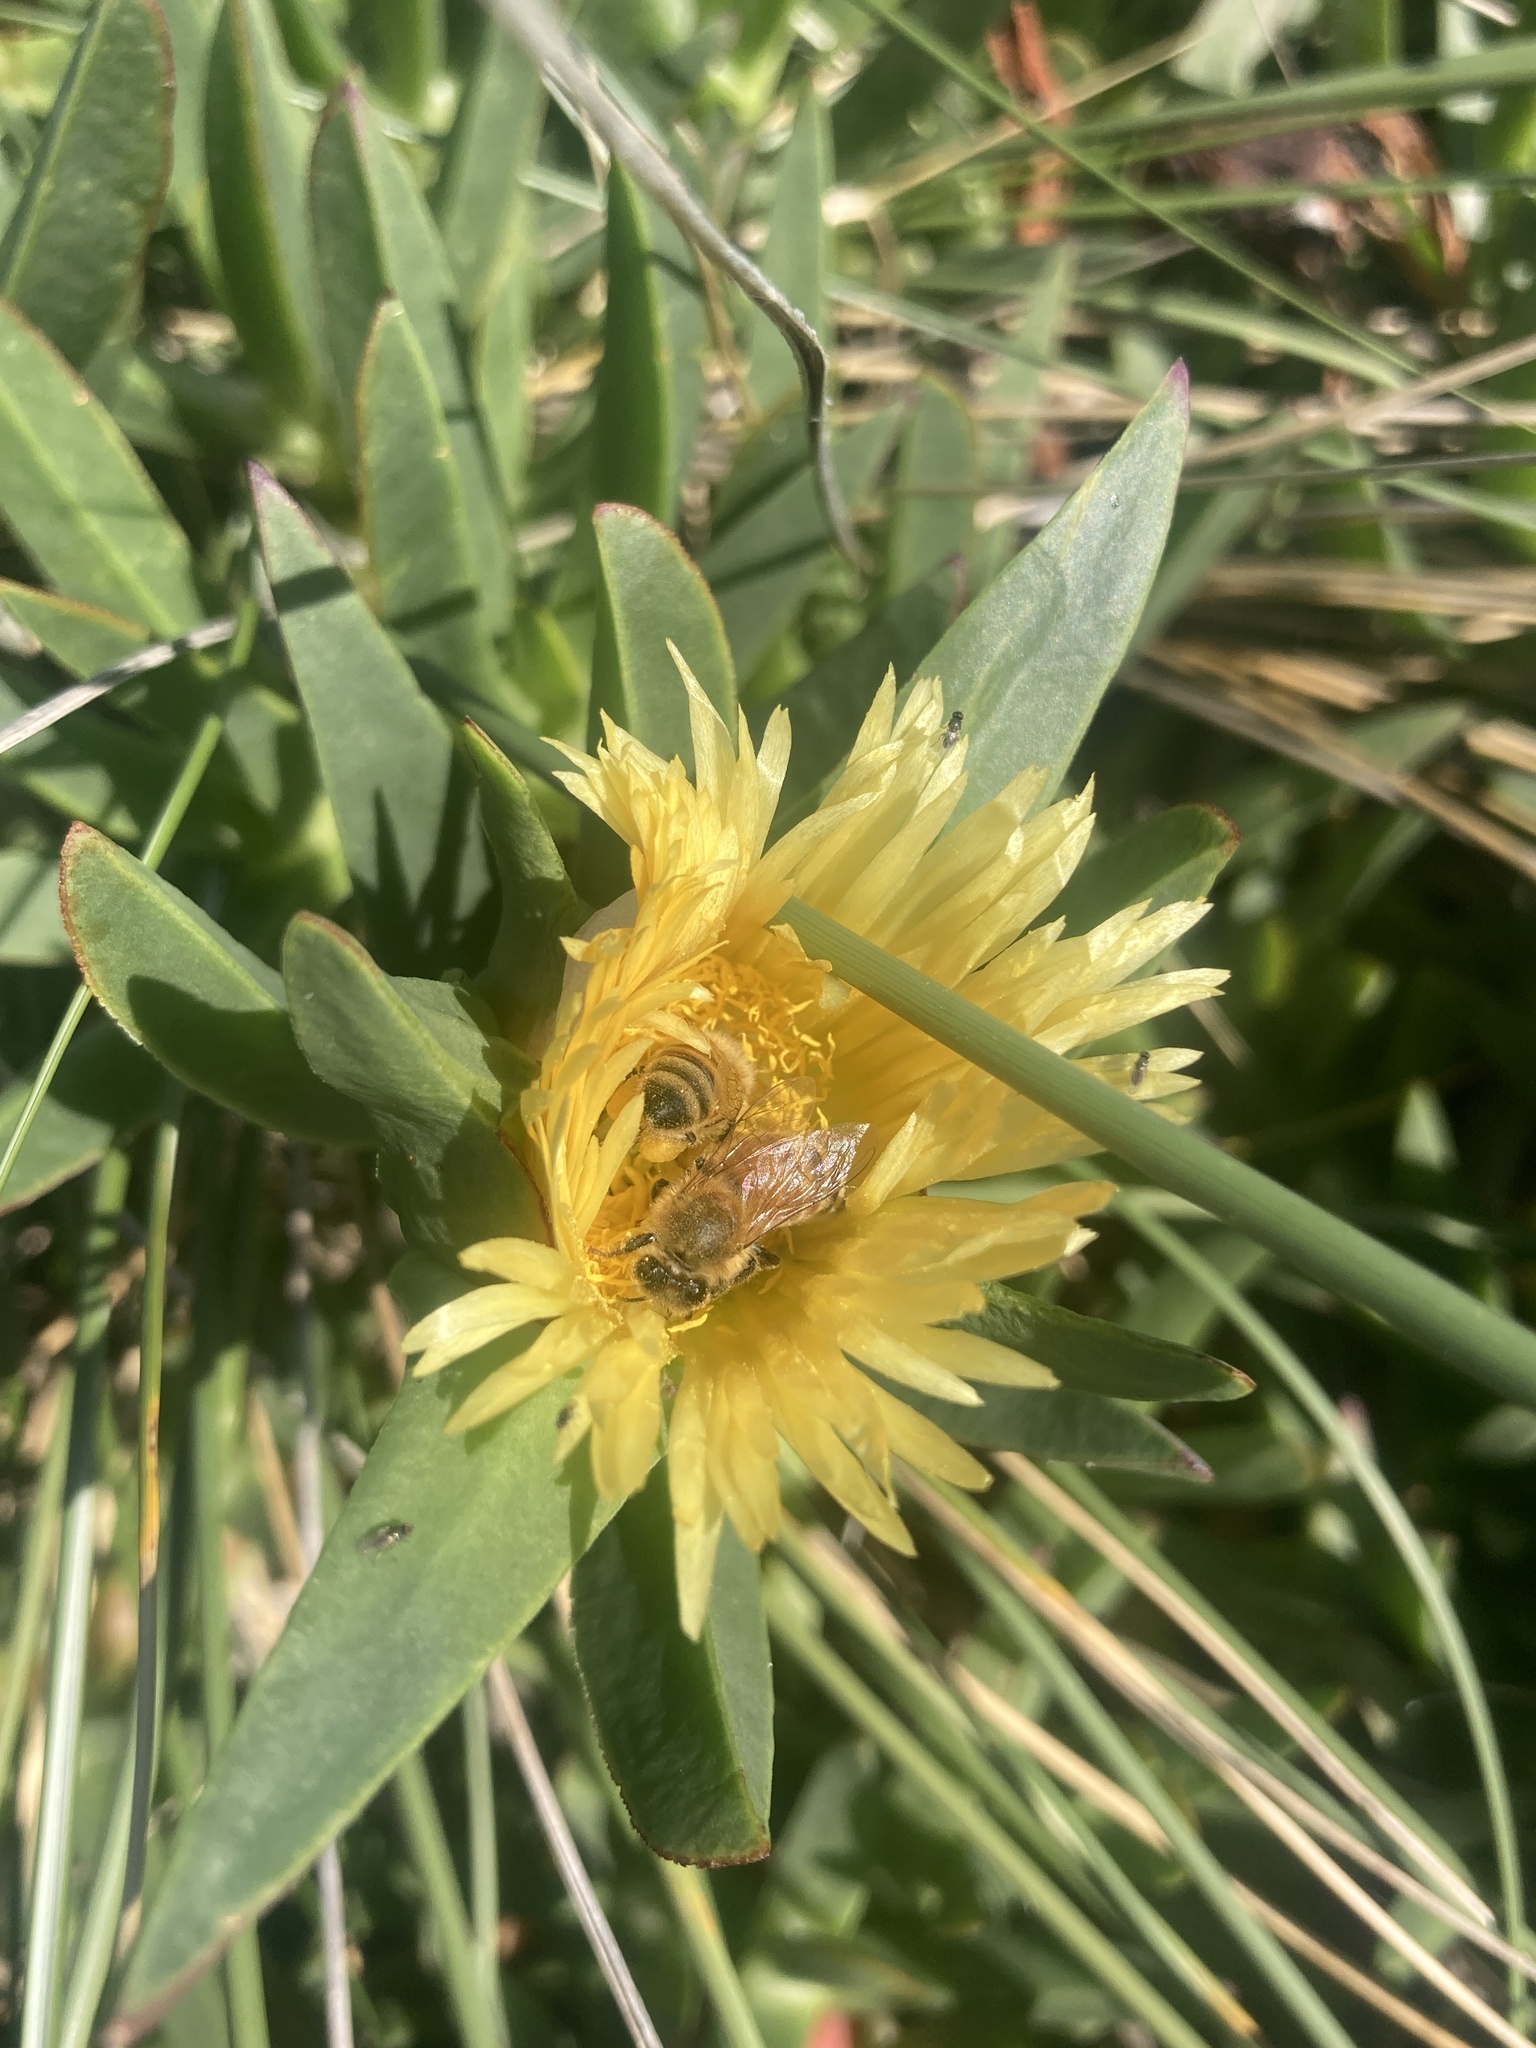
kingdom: Animalia
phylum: Arthropoda
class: Insecta
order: Hymenoptera
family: Apidae
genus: Apis
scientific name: Apis mellifera
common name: Honey bee
